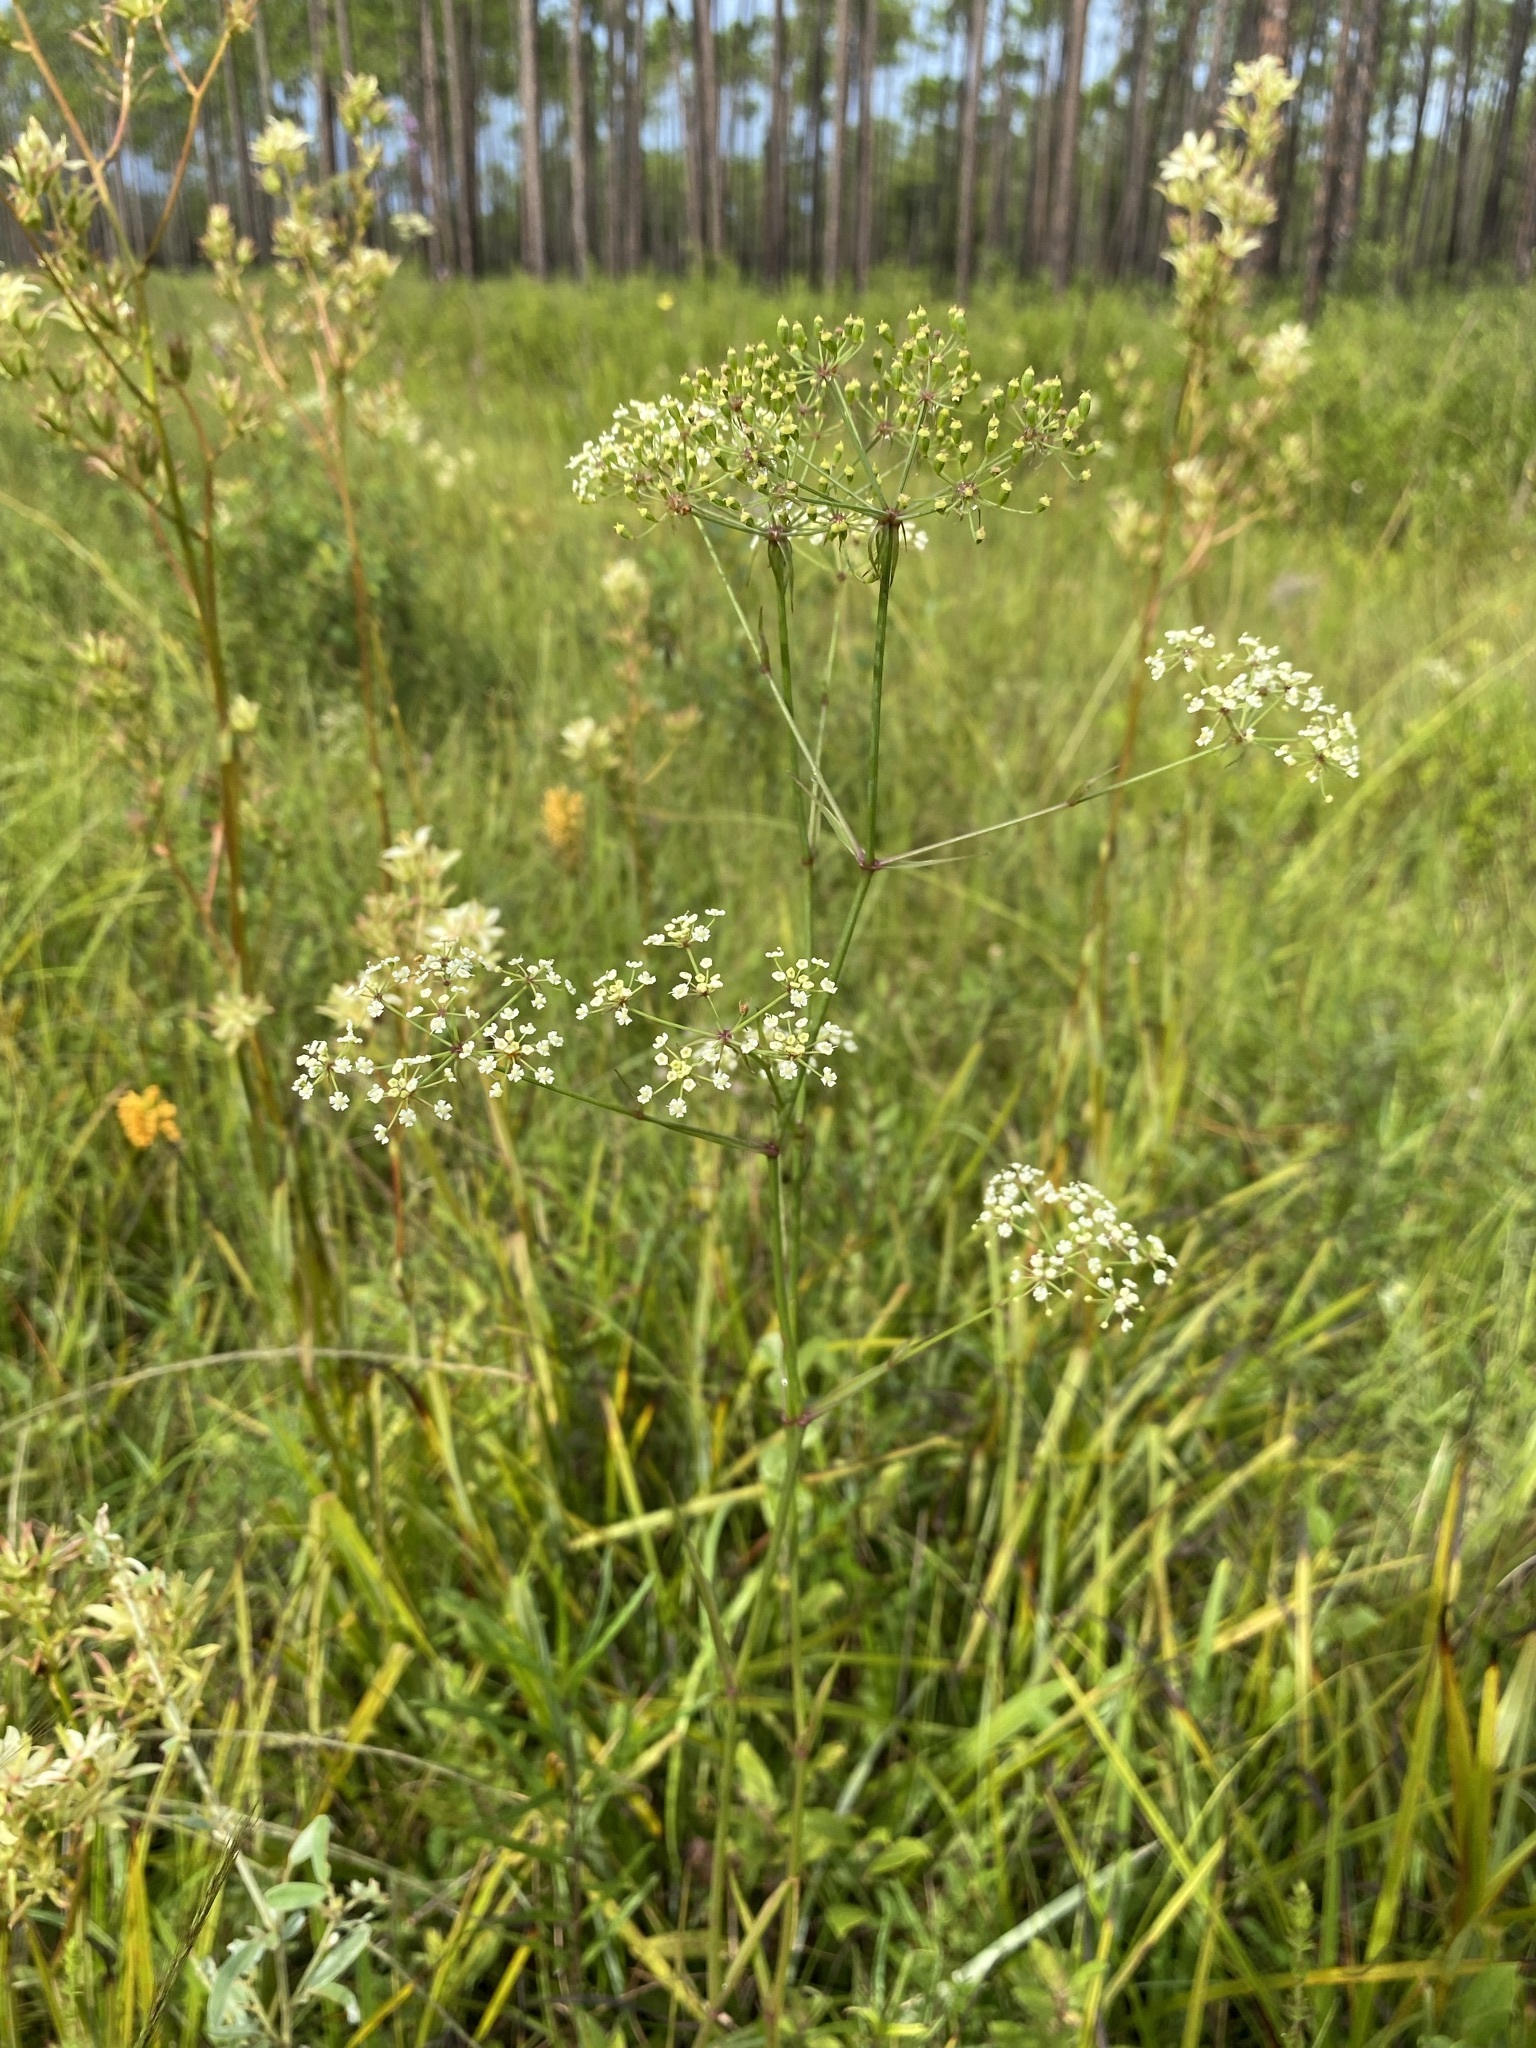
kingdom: Plantae
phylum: Tracheophyta
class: Magnoliopsida
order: Apiales
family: Apiaceae
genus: Tiedemannia
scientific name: Tiedemannia filiformis
